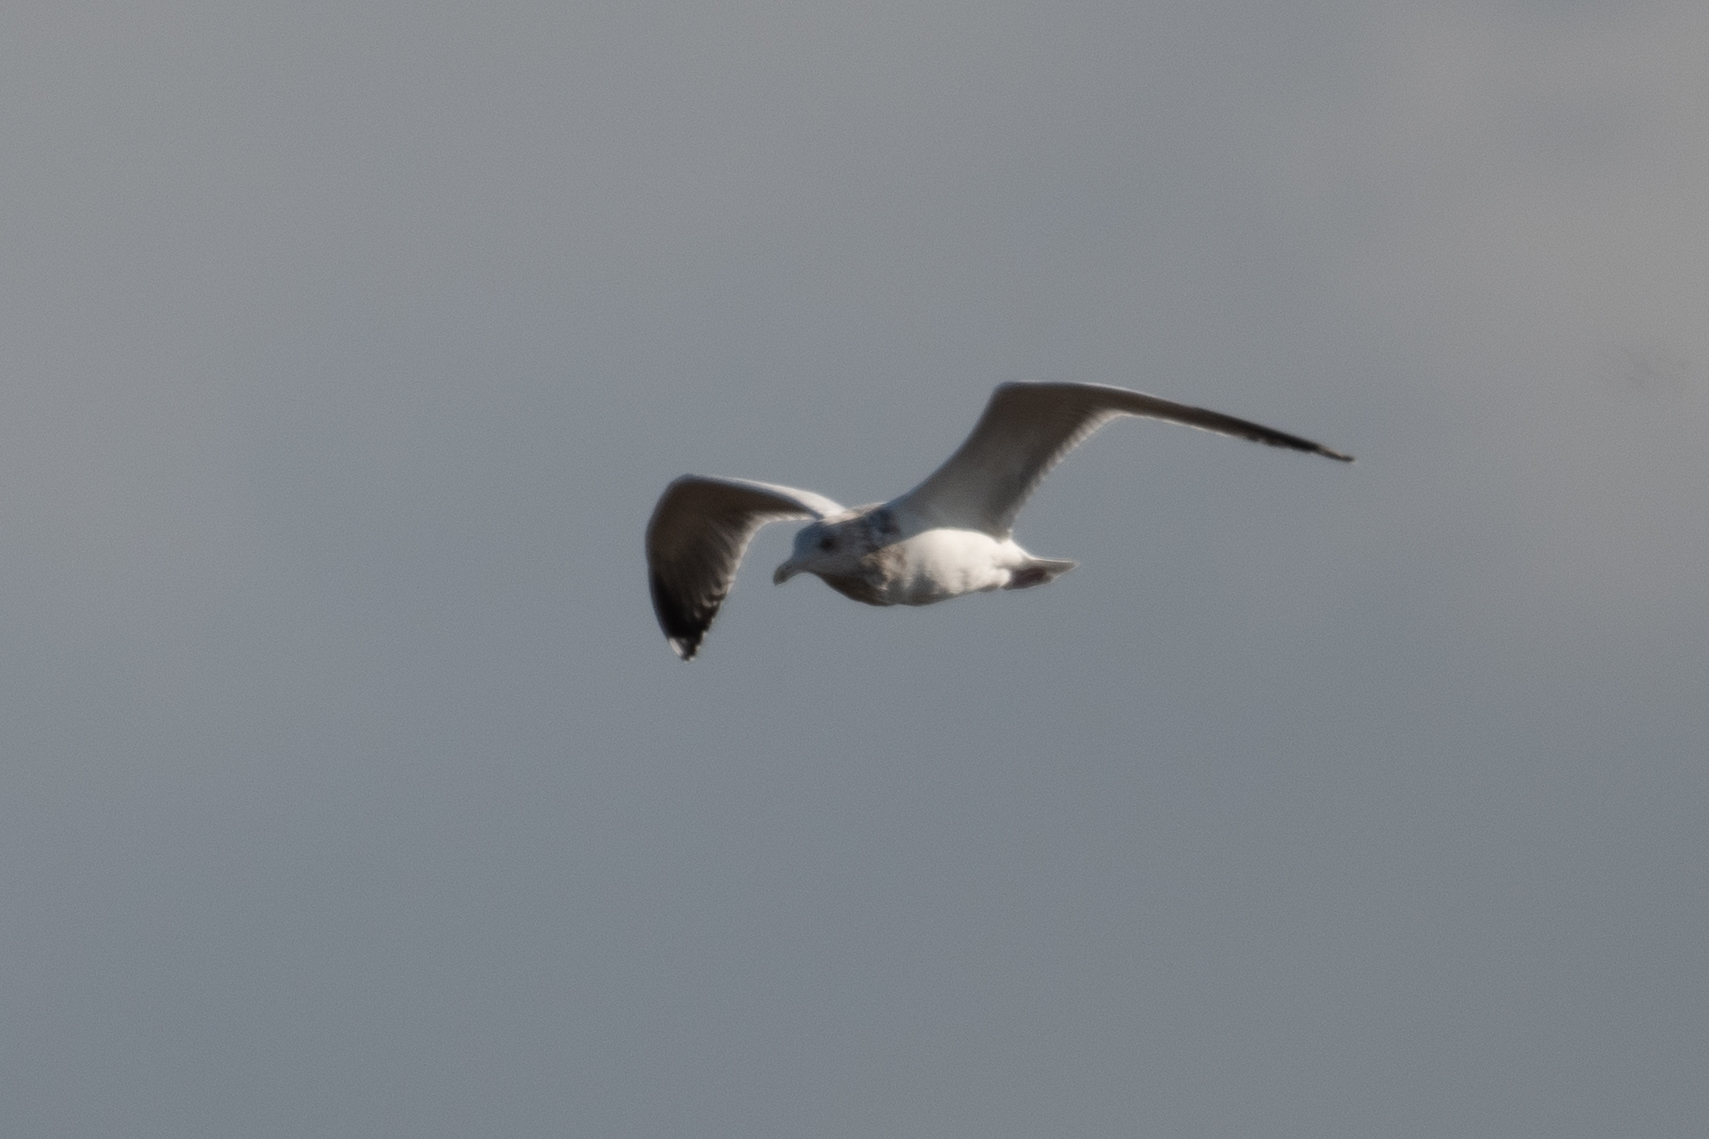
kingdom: Animalia
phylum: Chordata
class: Aves
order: Charadriiformes
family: Laridae
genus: Larus
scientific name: Larus californicus
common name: California gull
